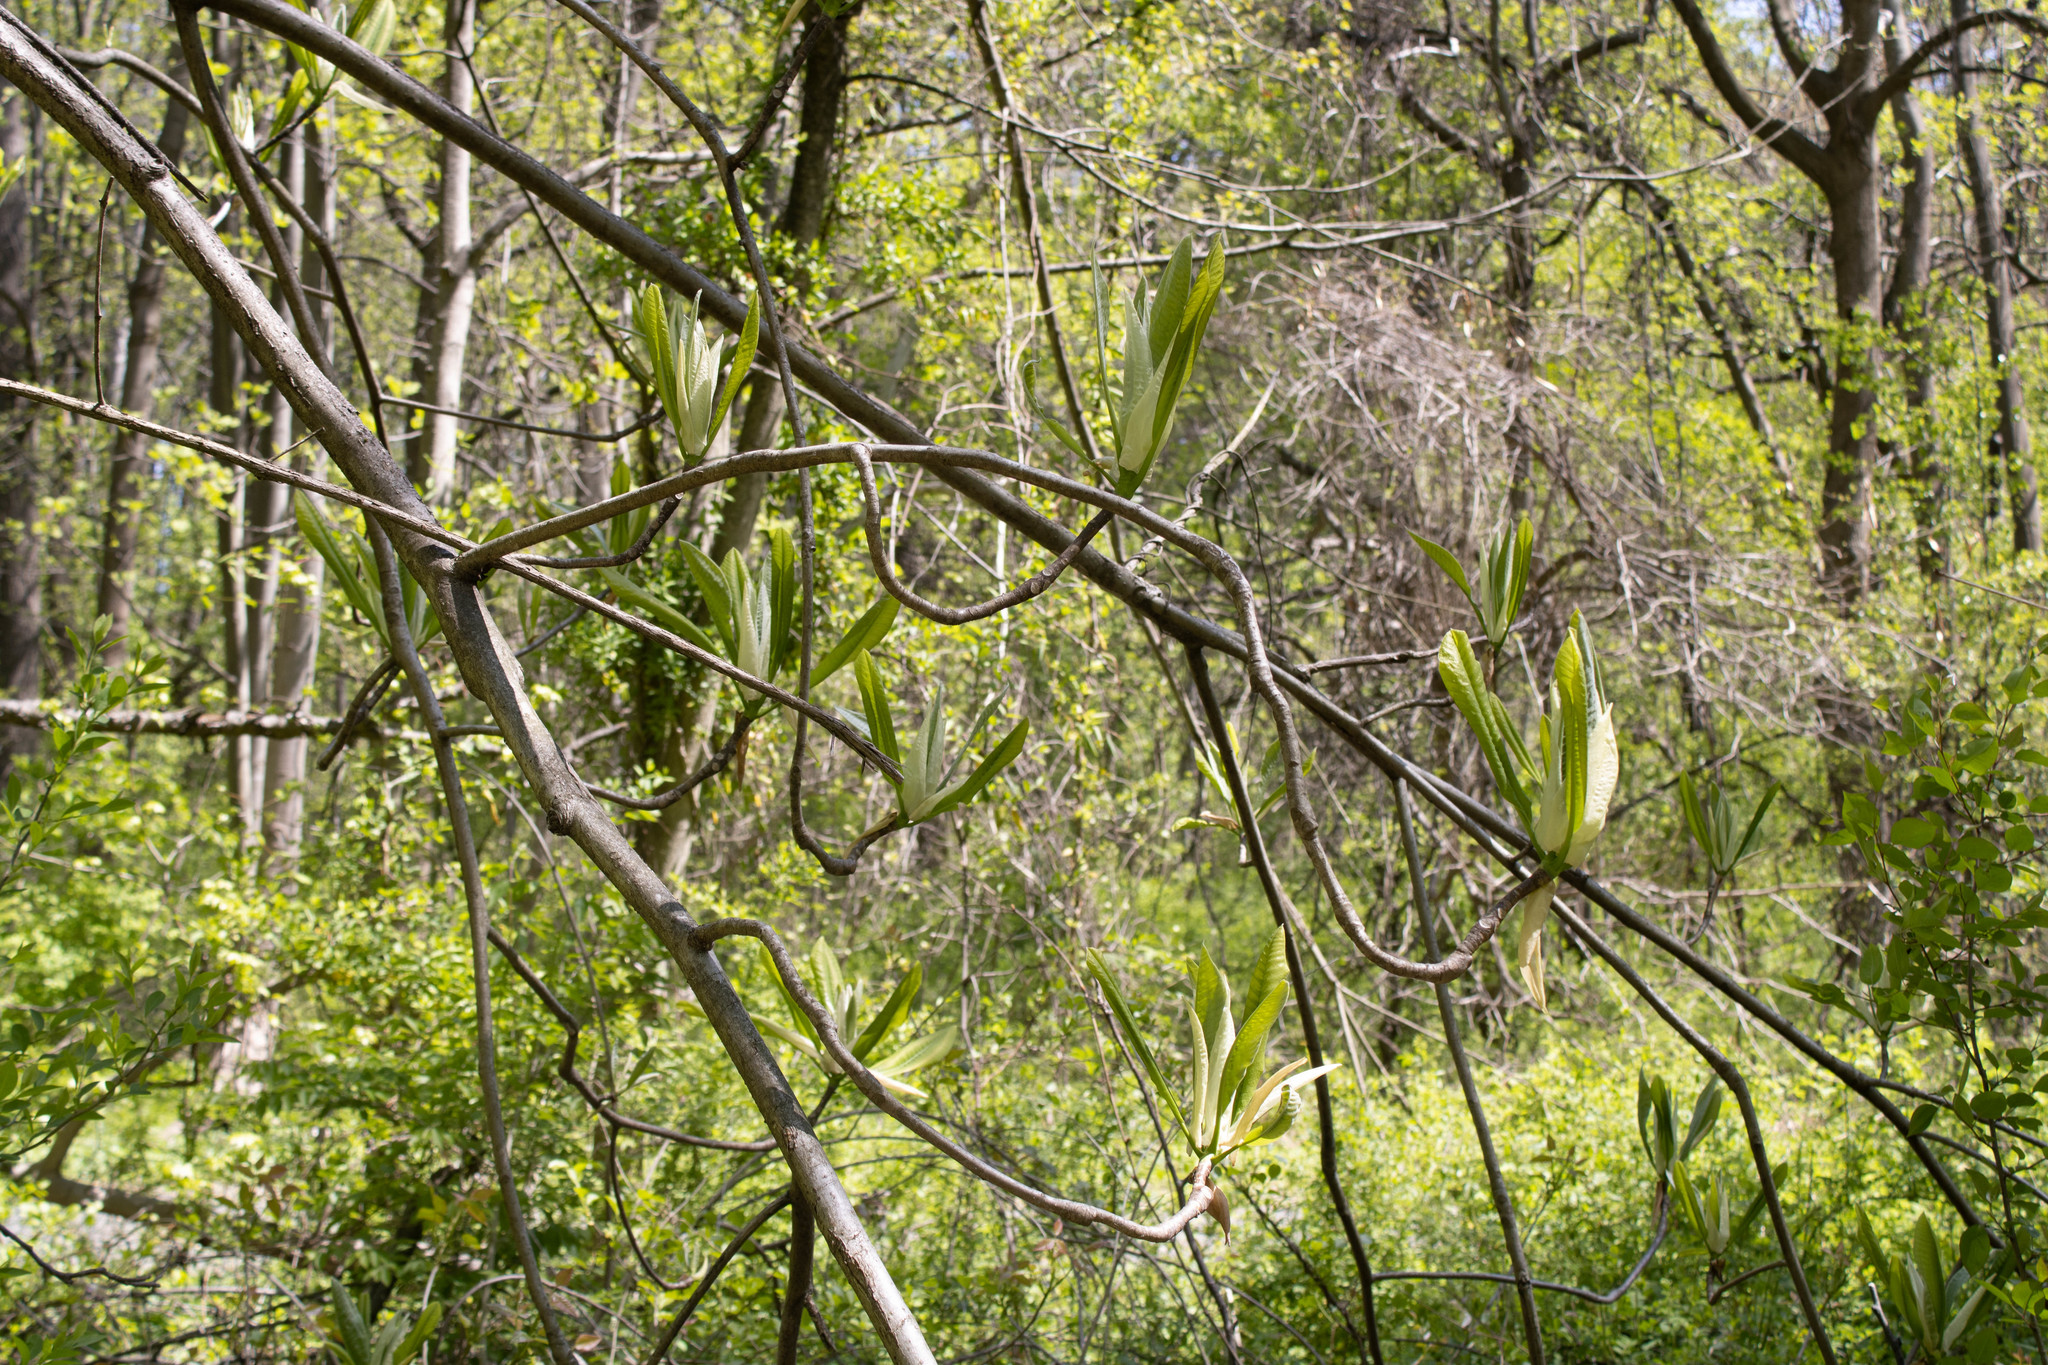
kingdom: Plantae
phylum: Tracheophyta
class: Magnoliopsida
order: Magnoliales
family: Magnoliaceae
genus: Magnolia
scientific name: Magnolia tripetala
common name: Umbrella magnolia
